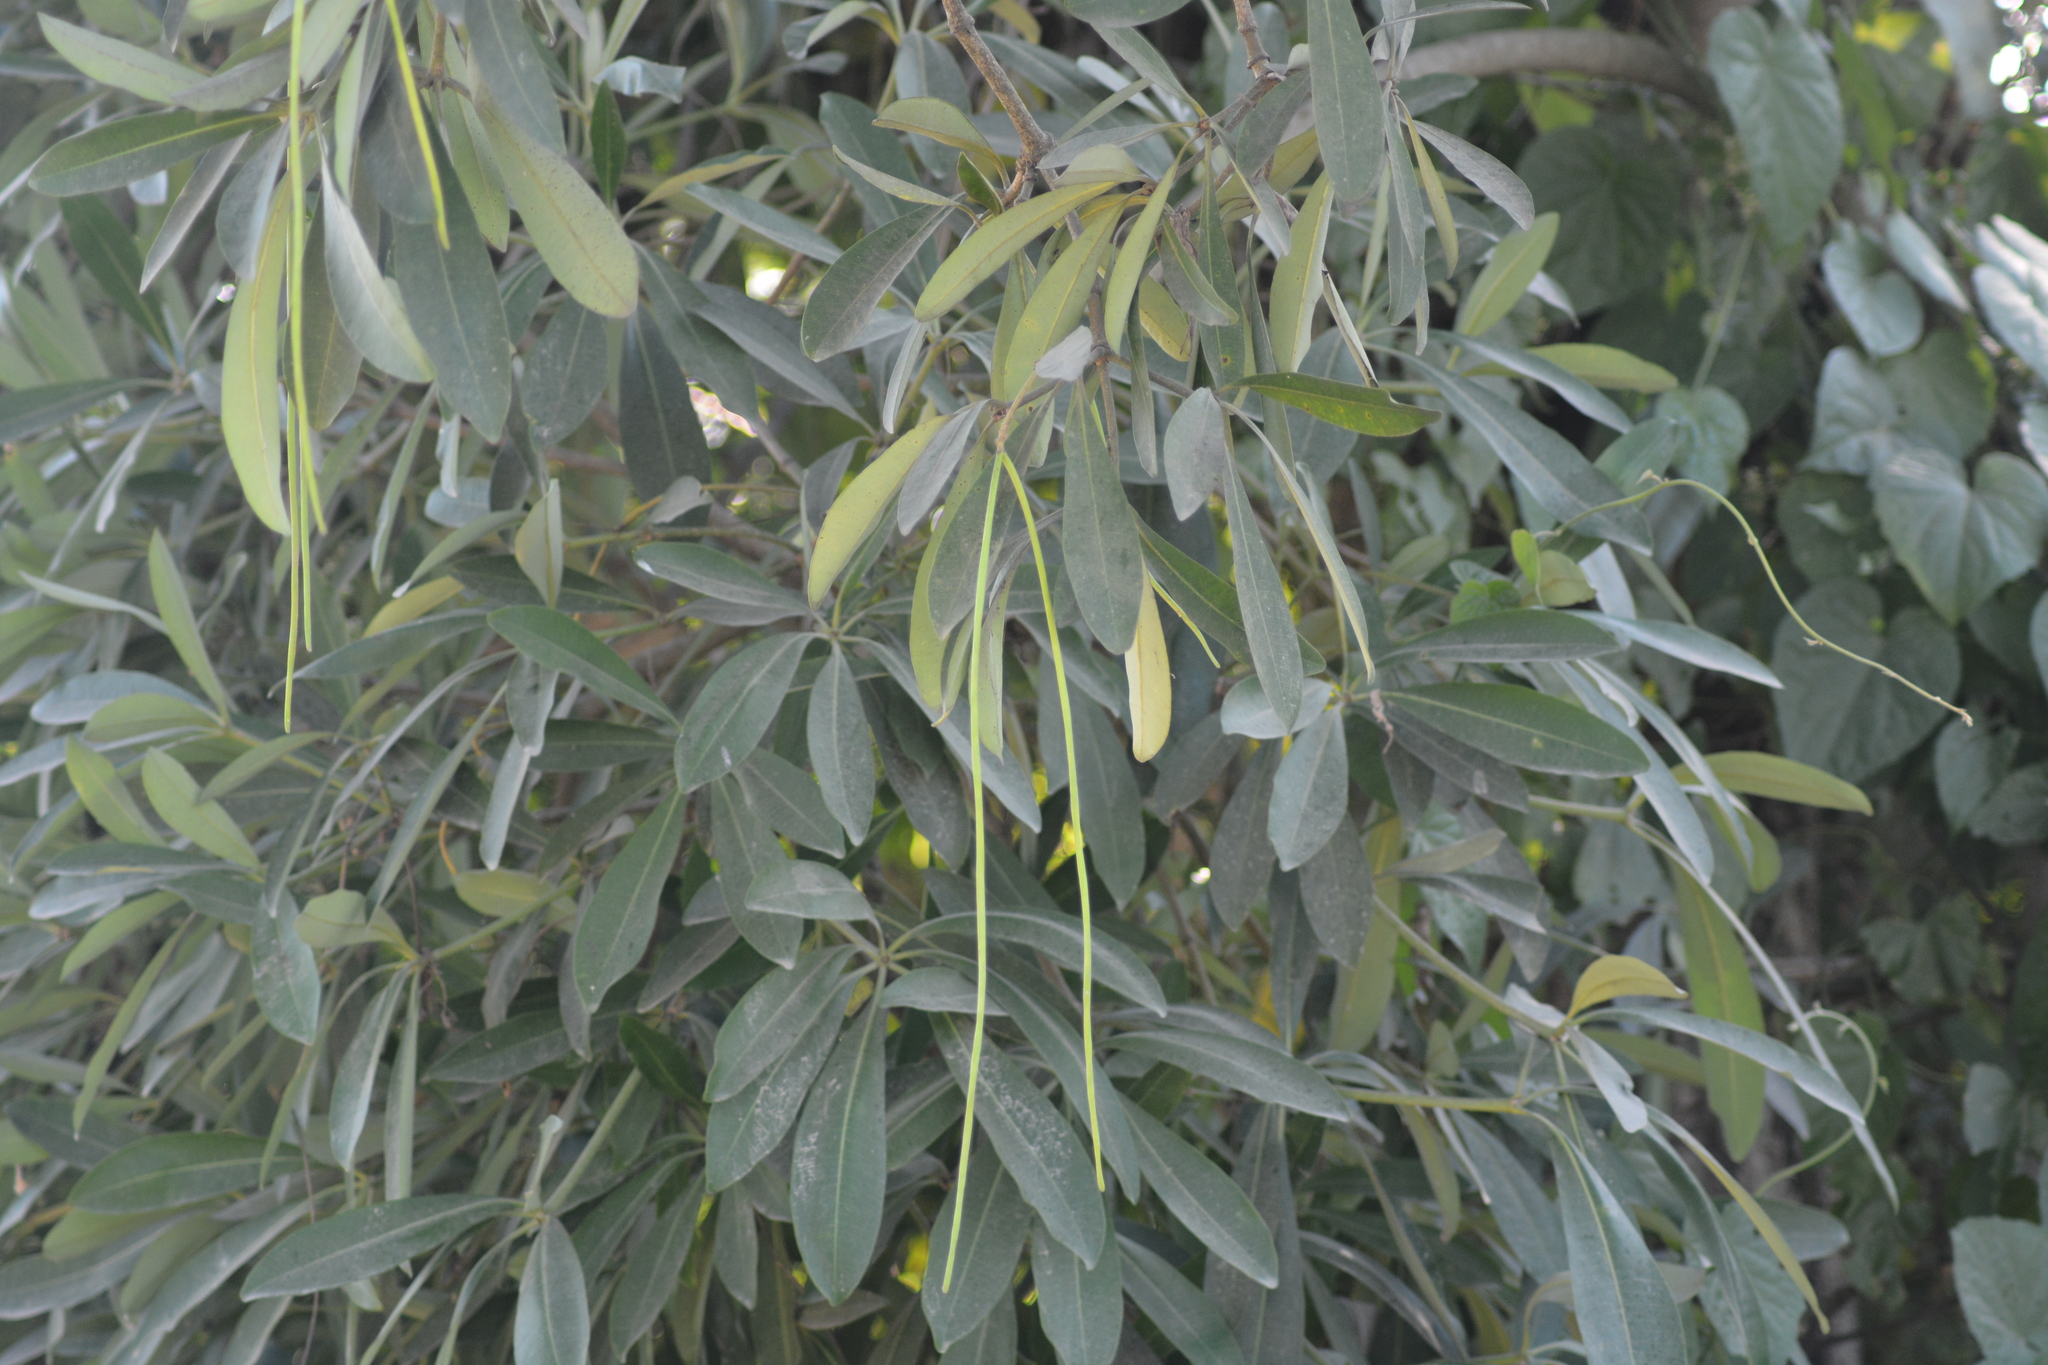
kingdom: Plantae
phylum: Tracheophyta
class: Magnoliopsida
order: Gentianales
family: Apocynaceae
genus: Alstonia
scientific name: Alstonia scholaris
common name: White cheesewood
